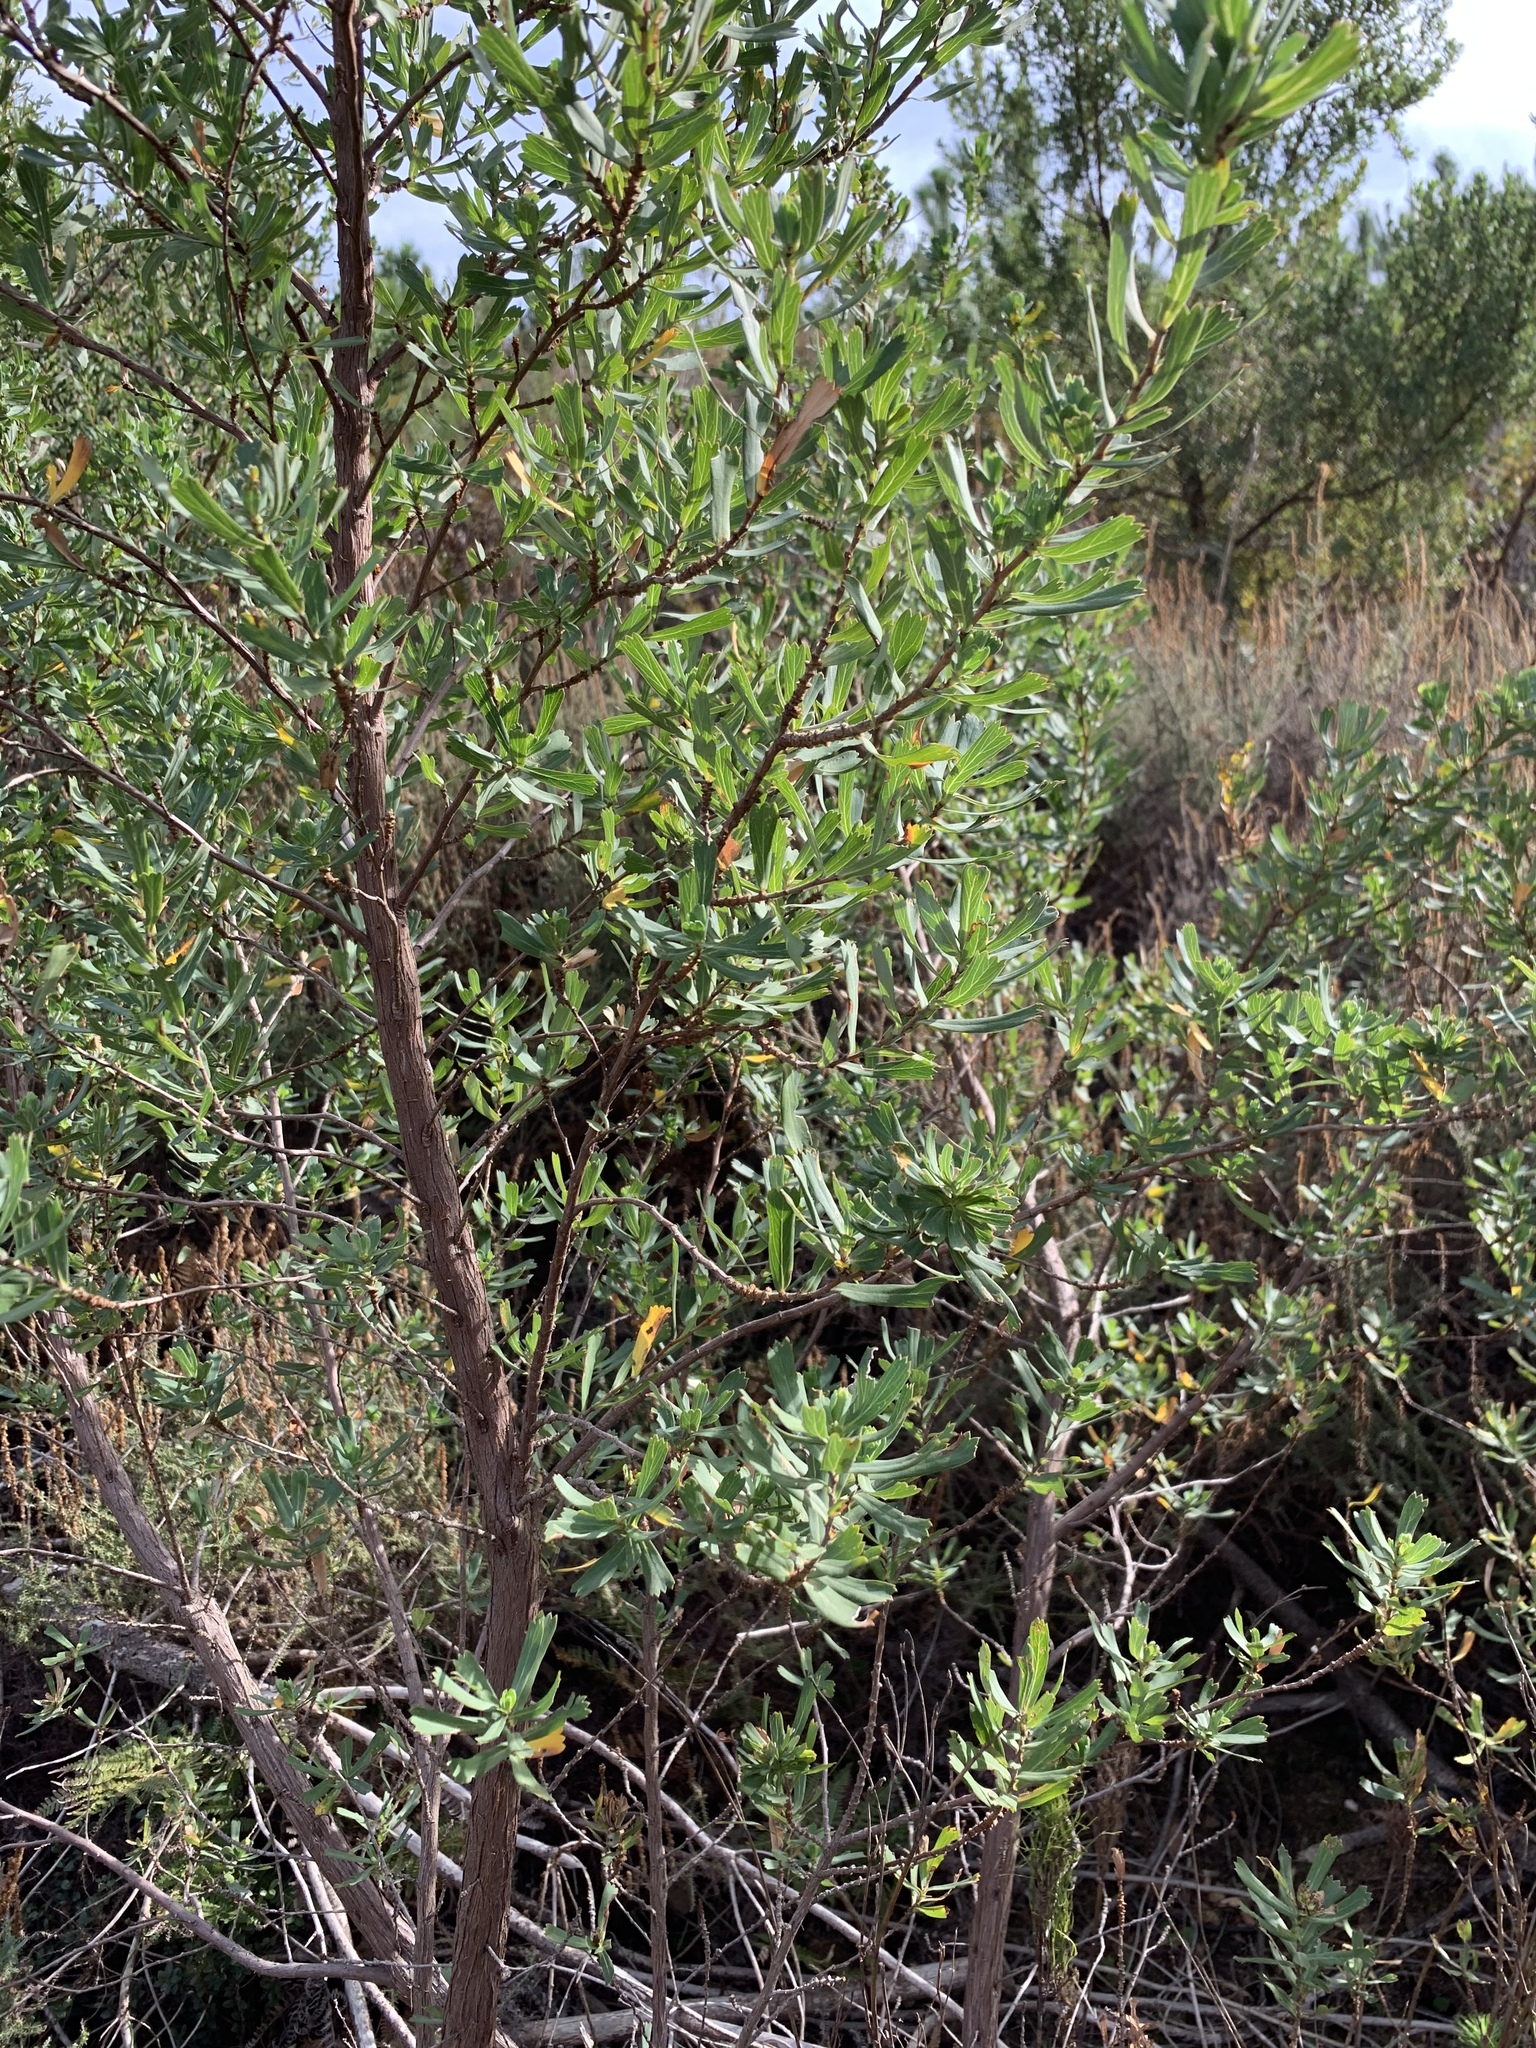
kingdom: Plantae
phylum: Tracheophyta
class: Magnoliopsida
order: Rosales
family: Rosaceae
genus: Cliffortia
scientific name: Cliffortia cuneata
